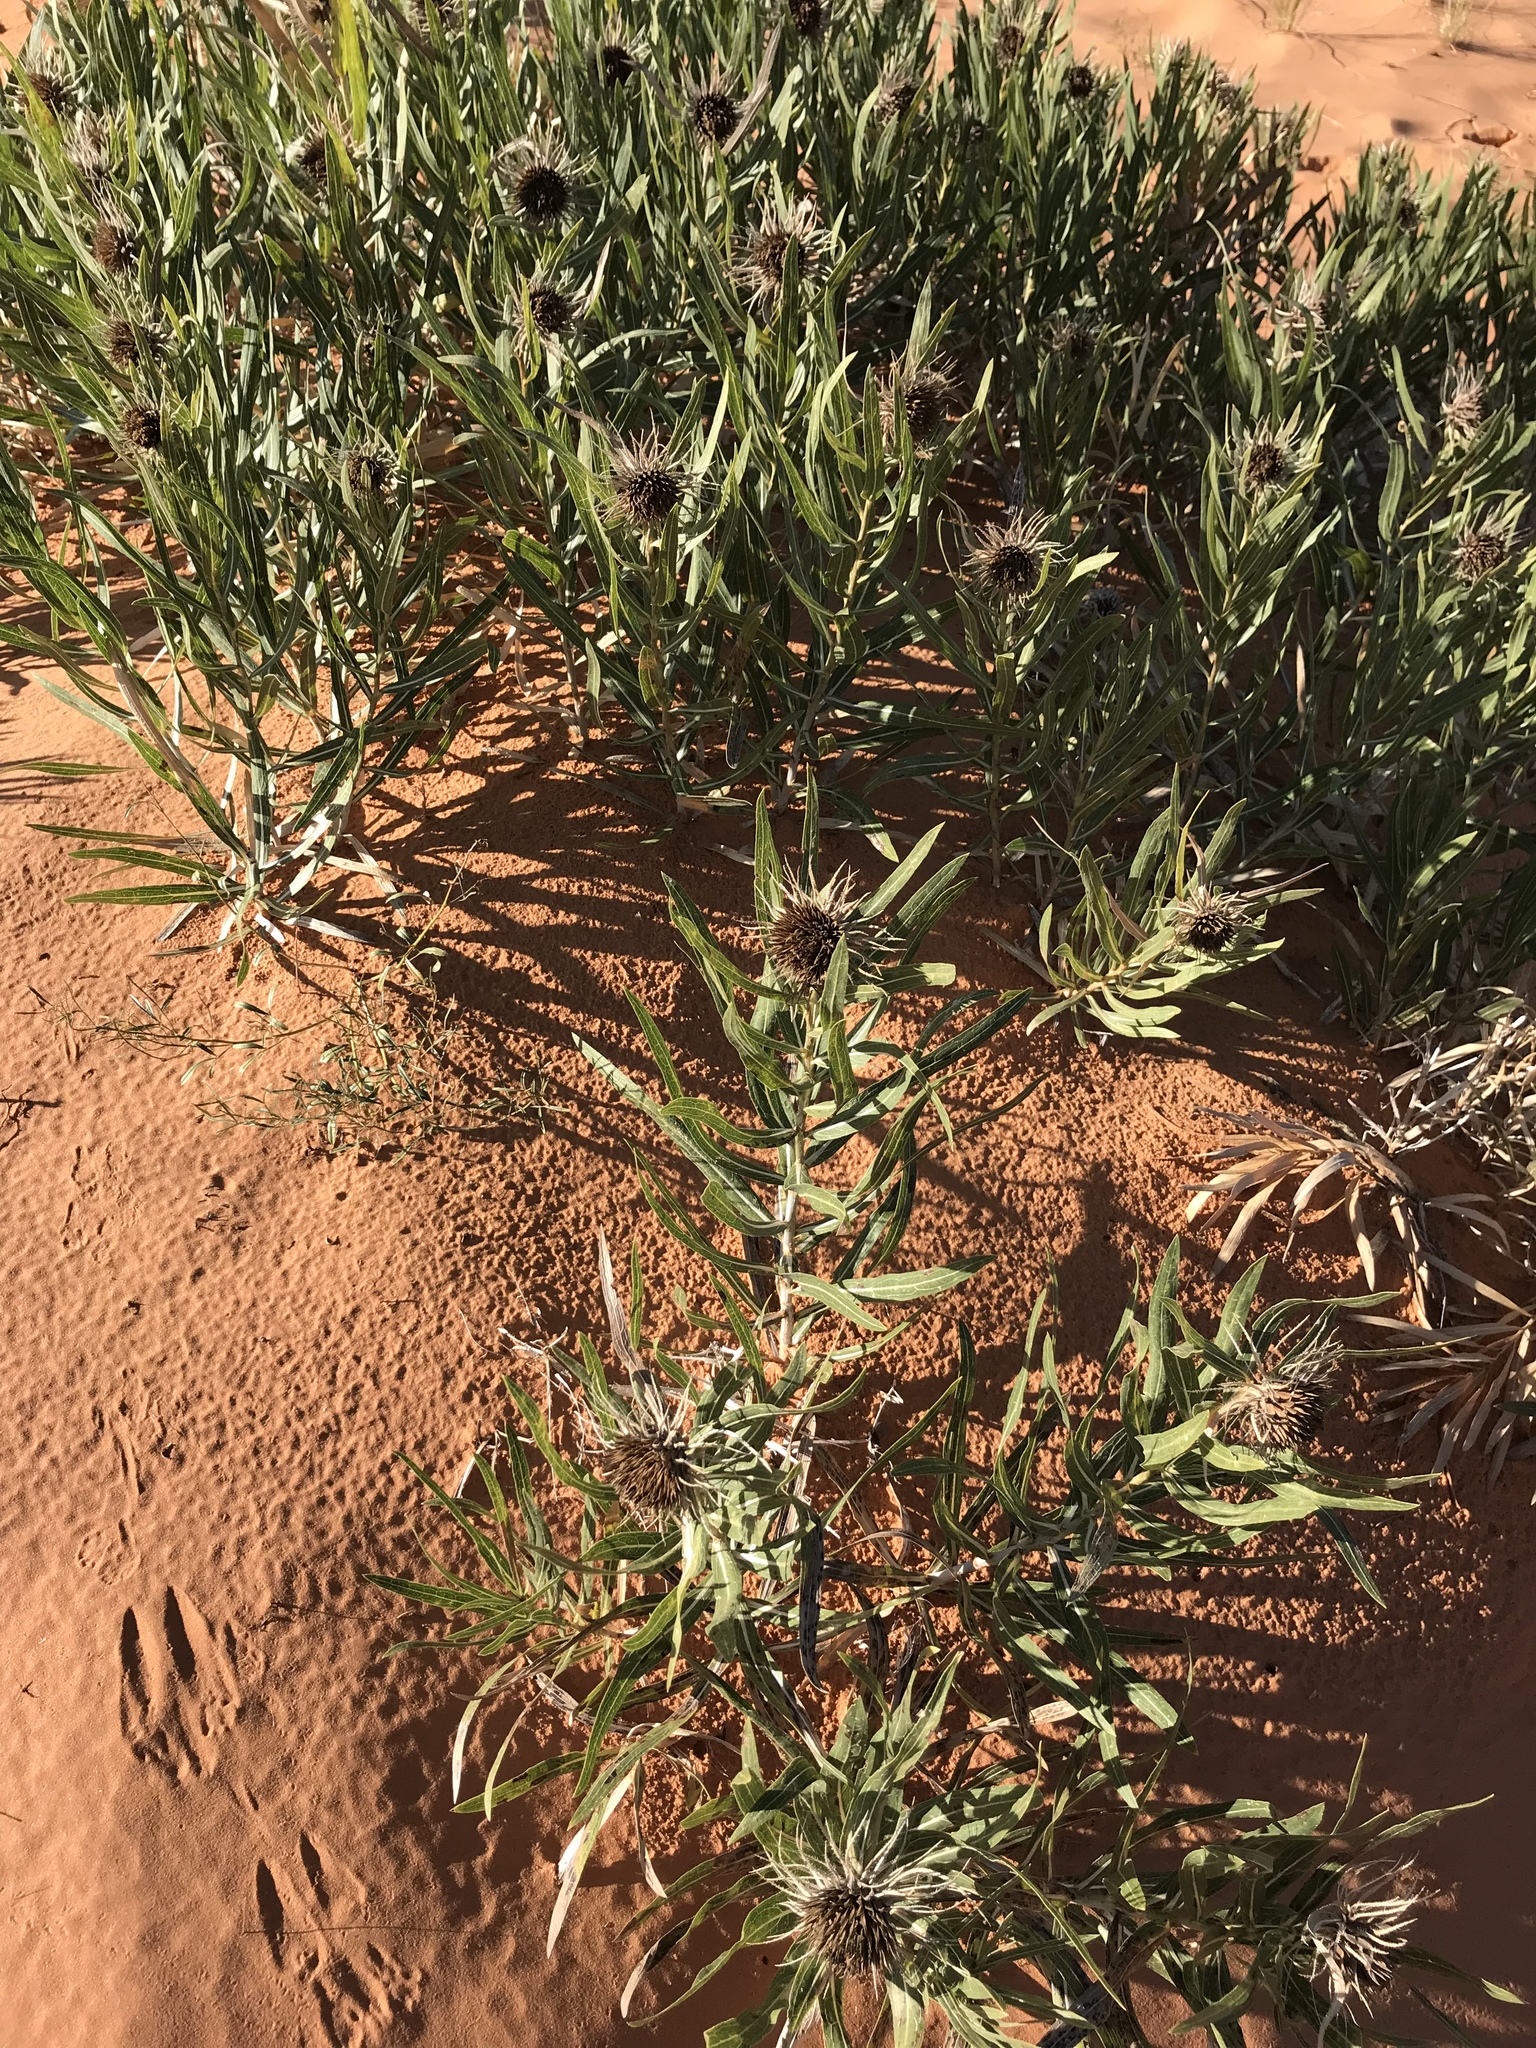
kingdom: Plantae
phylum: Tracheophyta
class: Magnoliopsida
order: Asterales
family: Asteraceae
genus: Scabrethia
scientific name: Scabrethia scabra
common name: Rough mules's-ears
